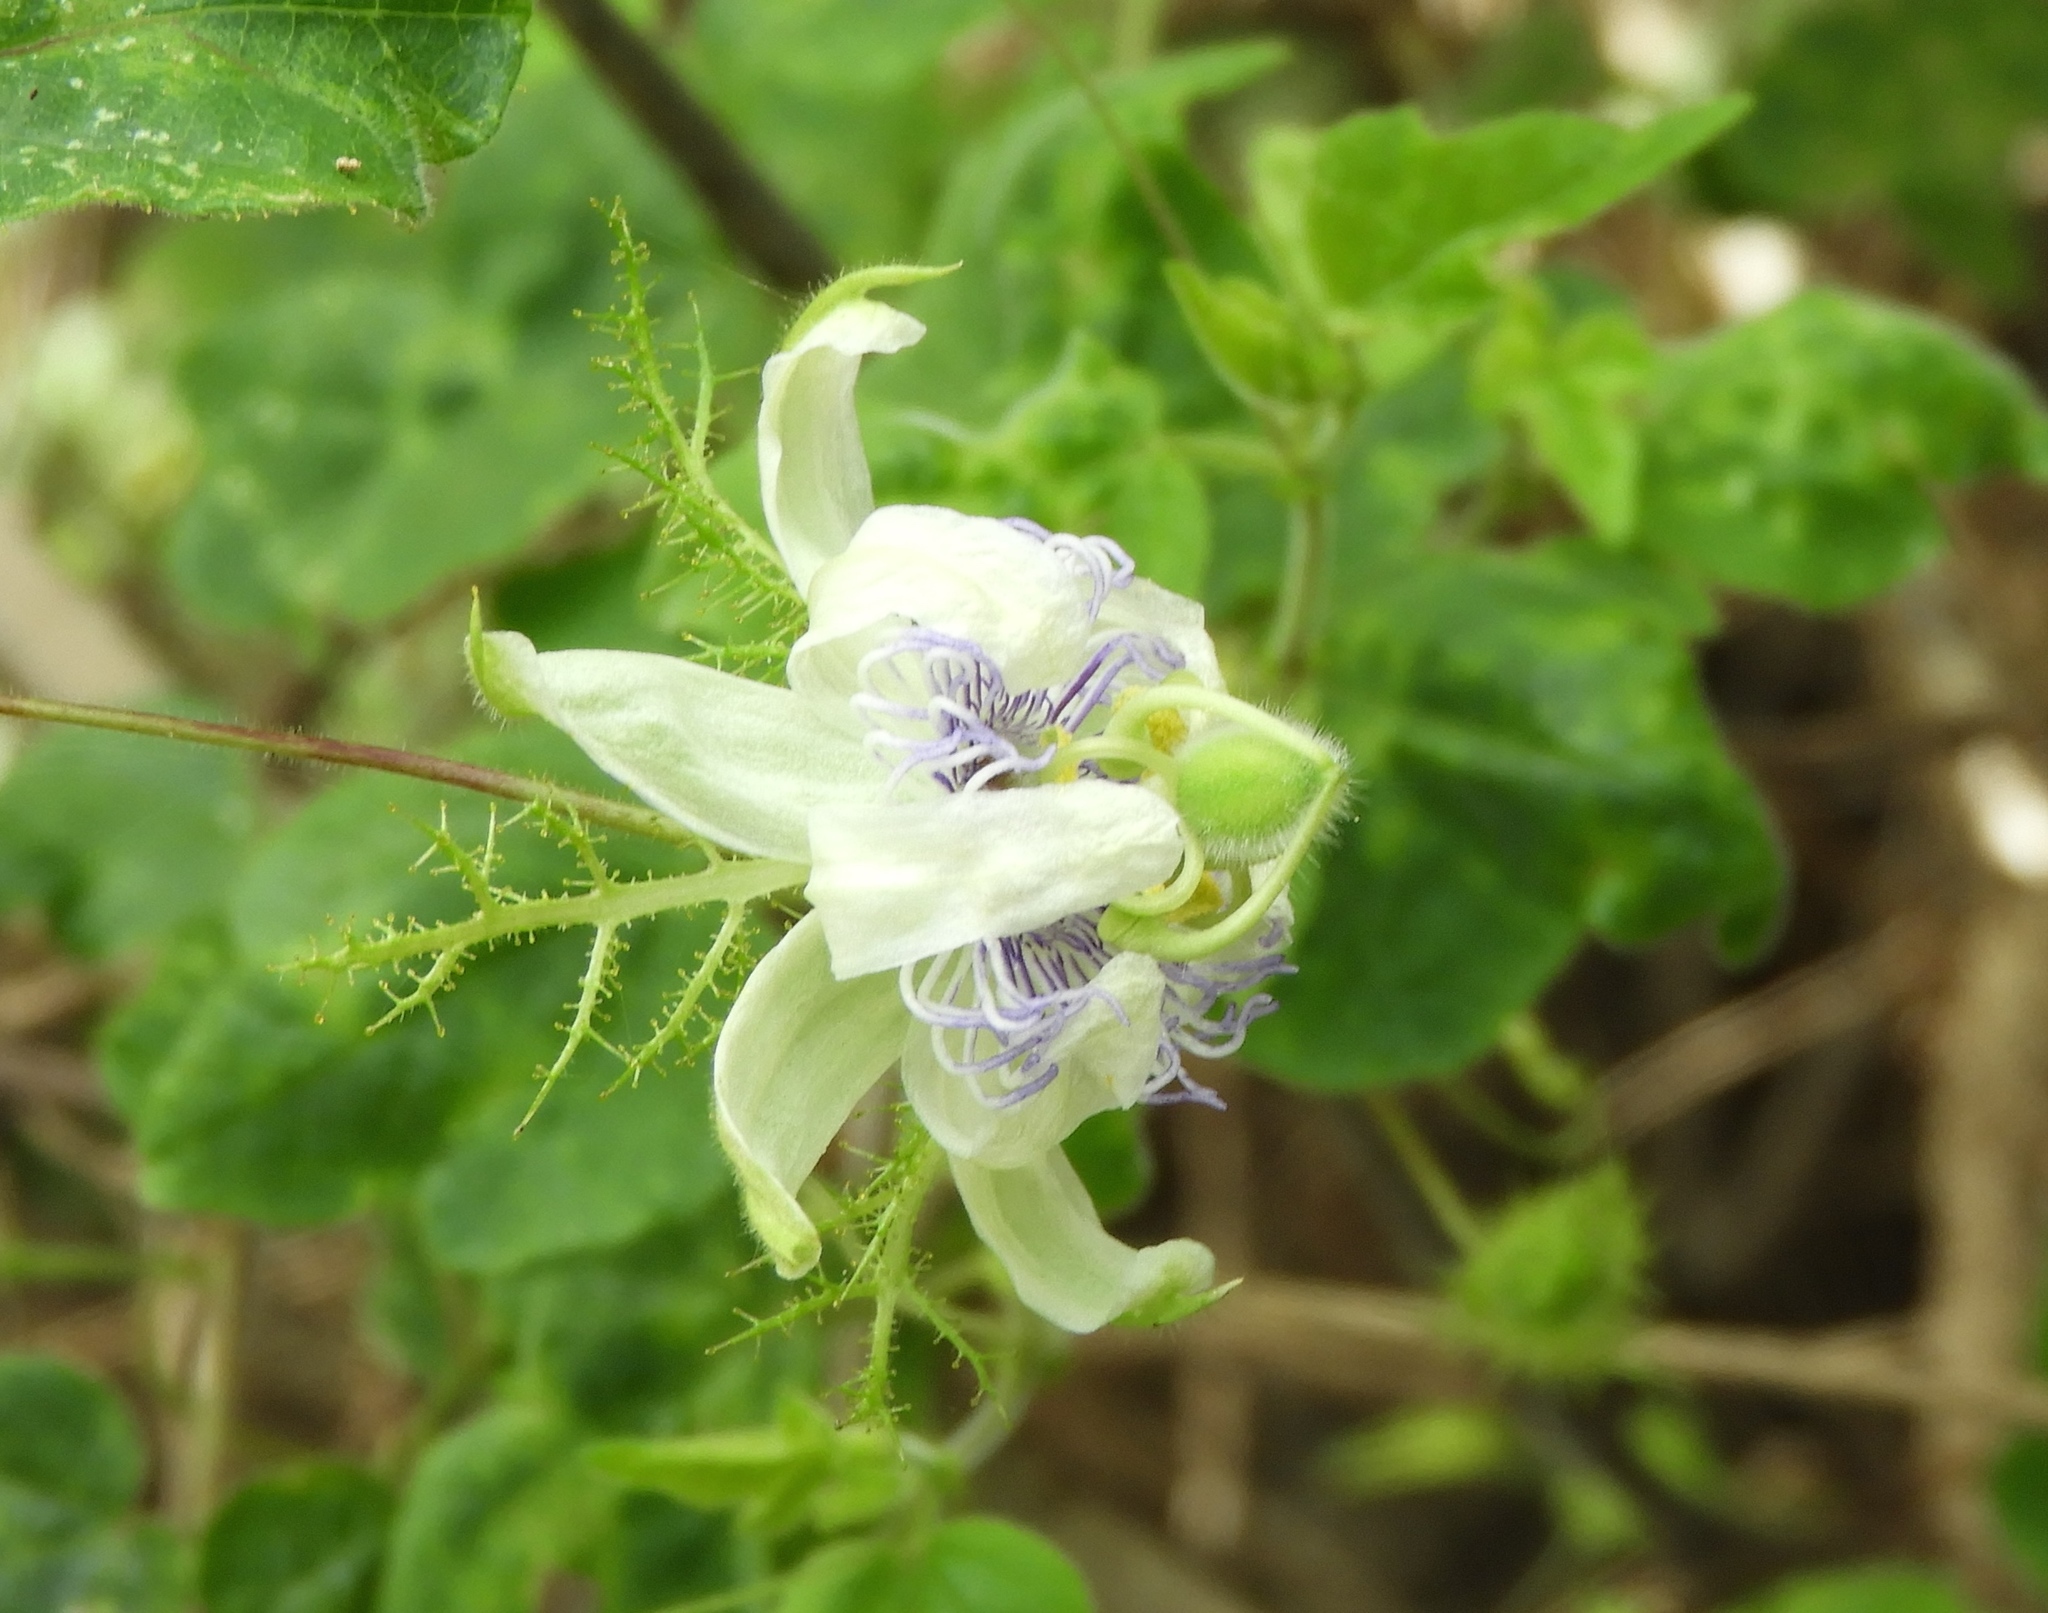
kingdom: Plantae
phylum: Tracheophyta
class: Magnoliopsida
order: Malpighiales
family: Passifloraceae
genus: Passiflora
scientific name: Passiflora foetida
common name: Fetid passionflower
